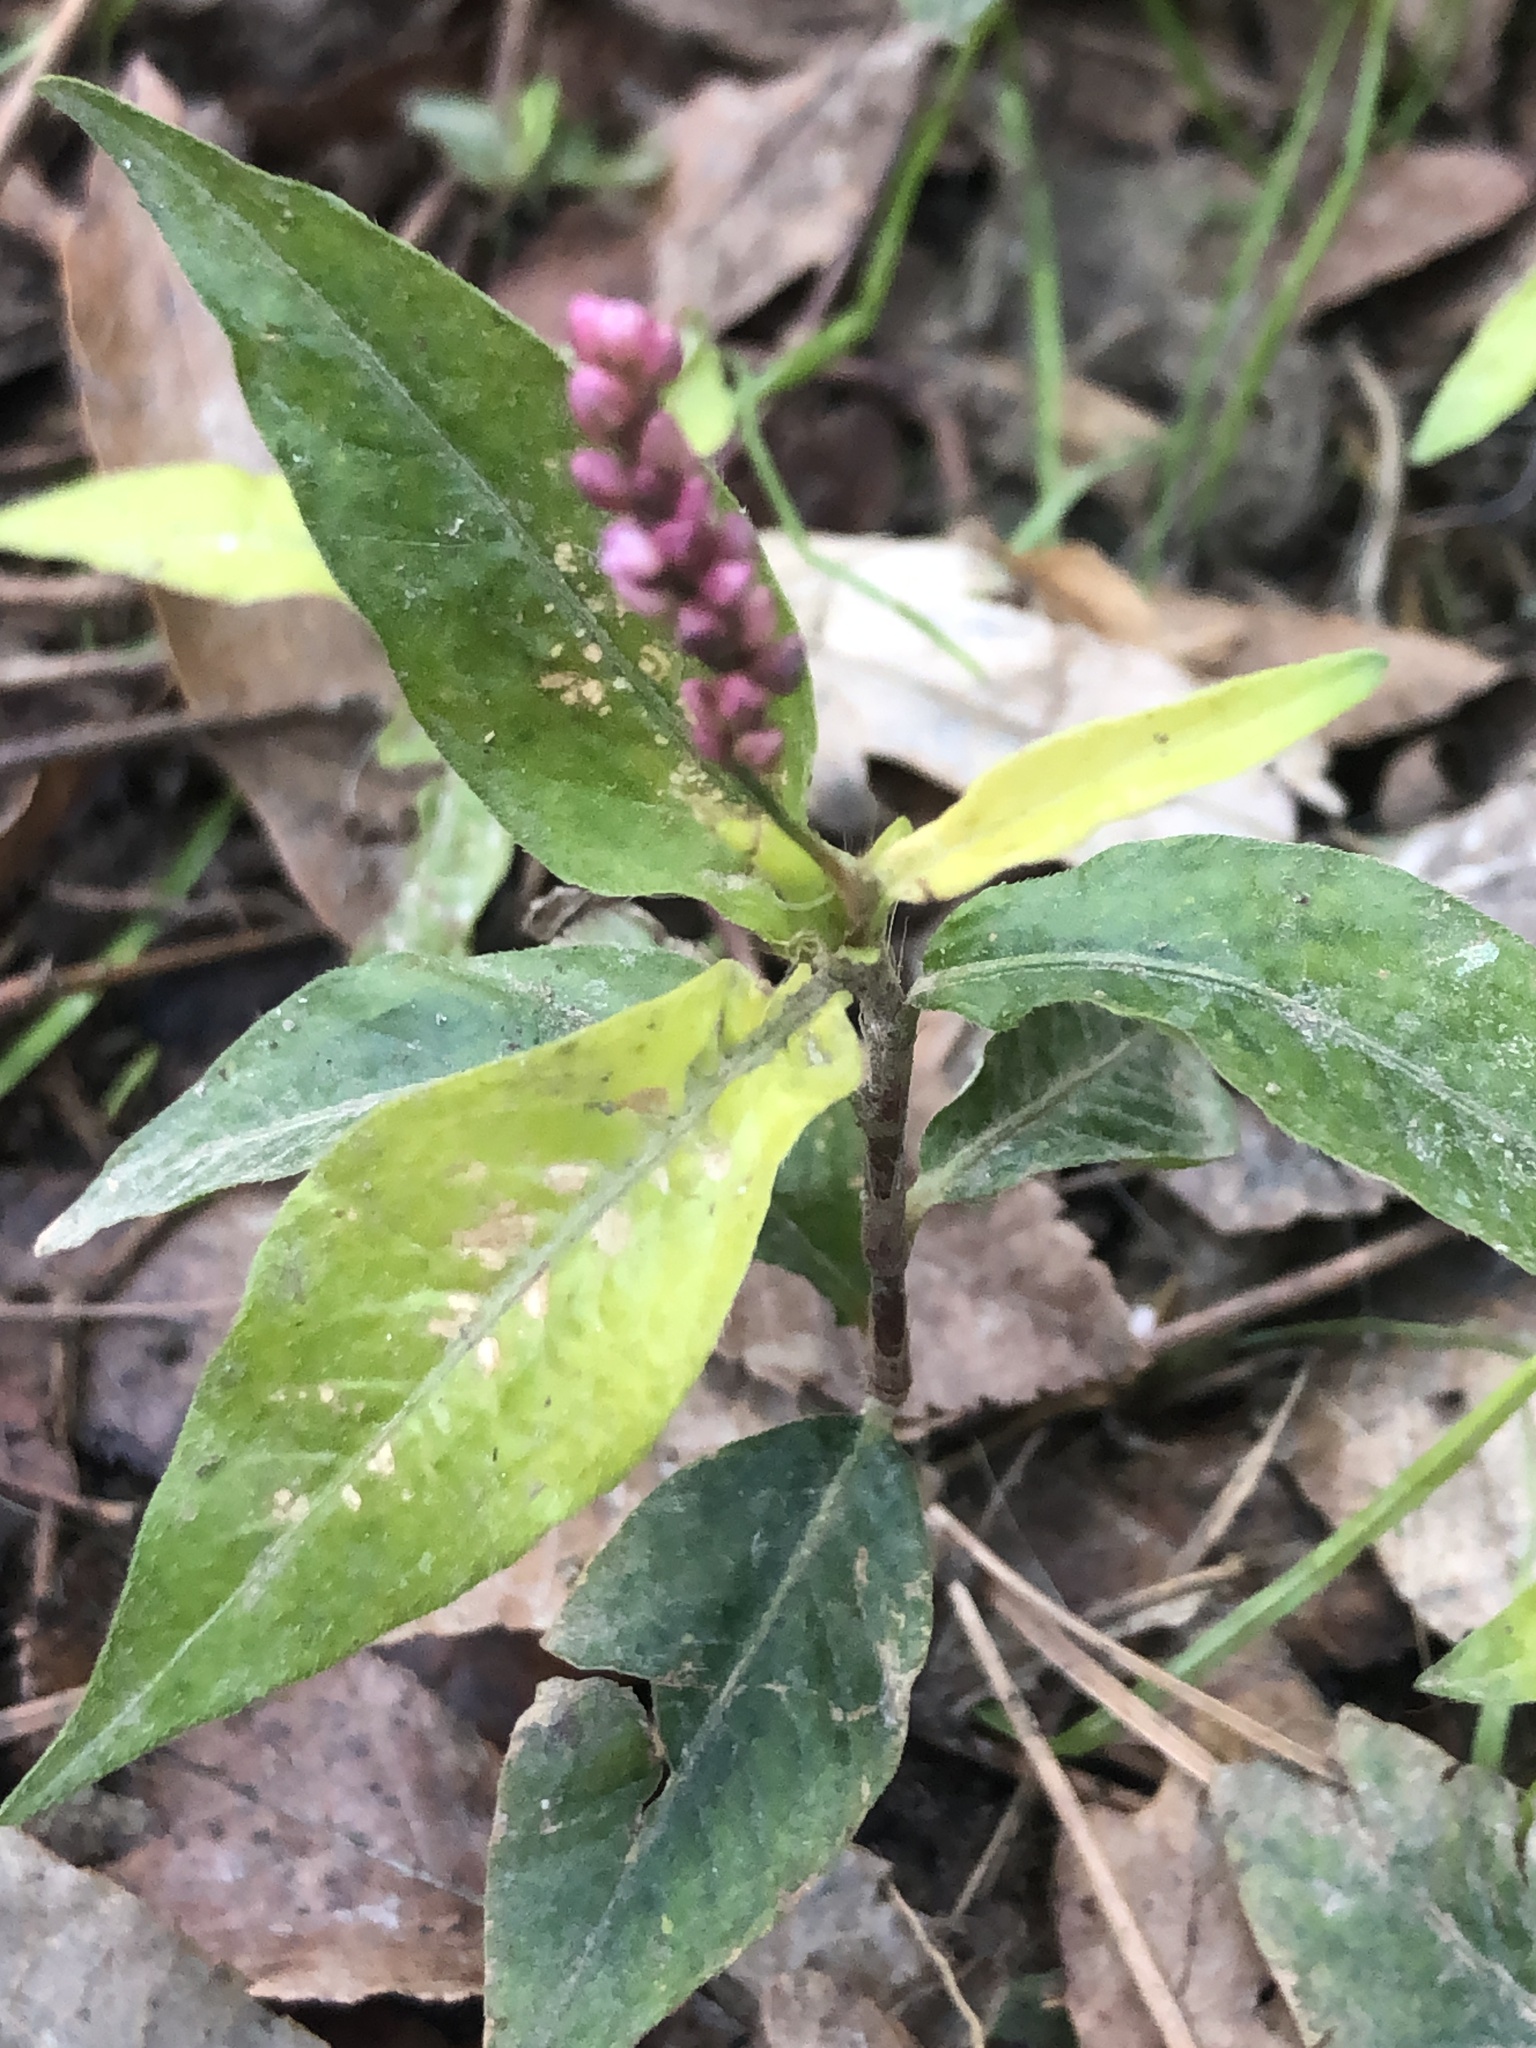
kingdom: Plantae
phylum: Tracheophyta
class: Magnoliopsida
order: Caryophyllales
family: Polygonaceae
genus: Persicaria
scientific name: Persicaria longiseta
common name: Bristly lady's-thumb
